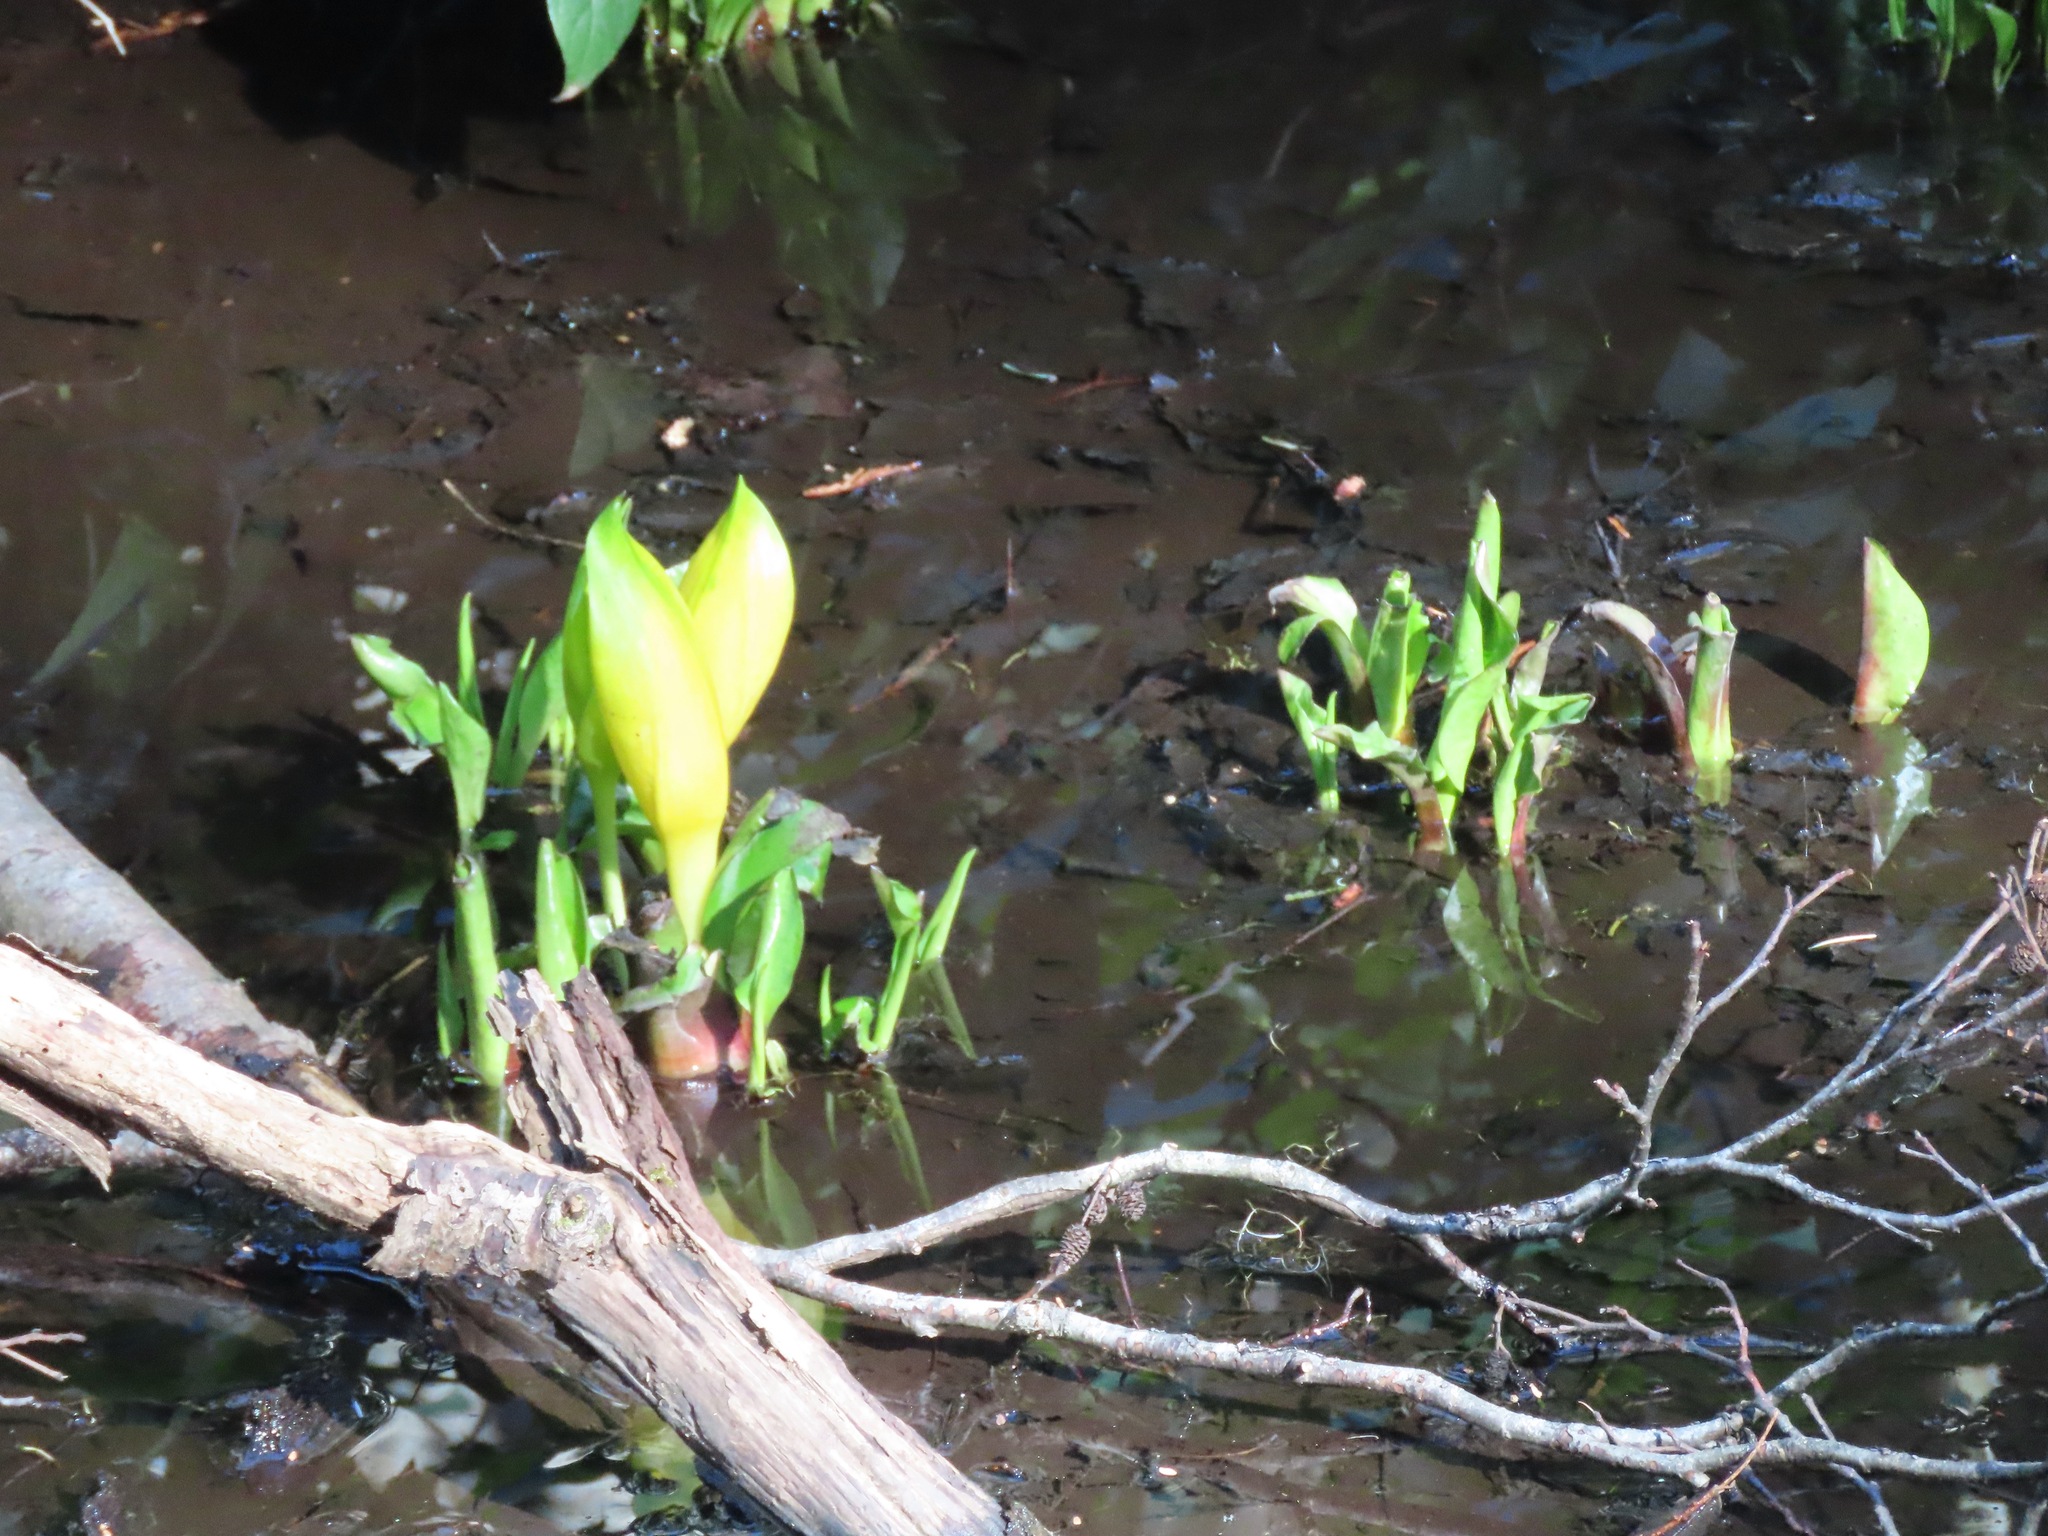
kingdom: Plantae
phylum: Tracheophyta
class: Liliopsida
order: Alismatales
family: Araceae
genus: Lysichiton
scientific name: Lysichiton americanus
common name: American skunk cabbage
